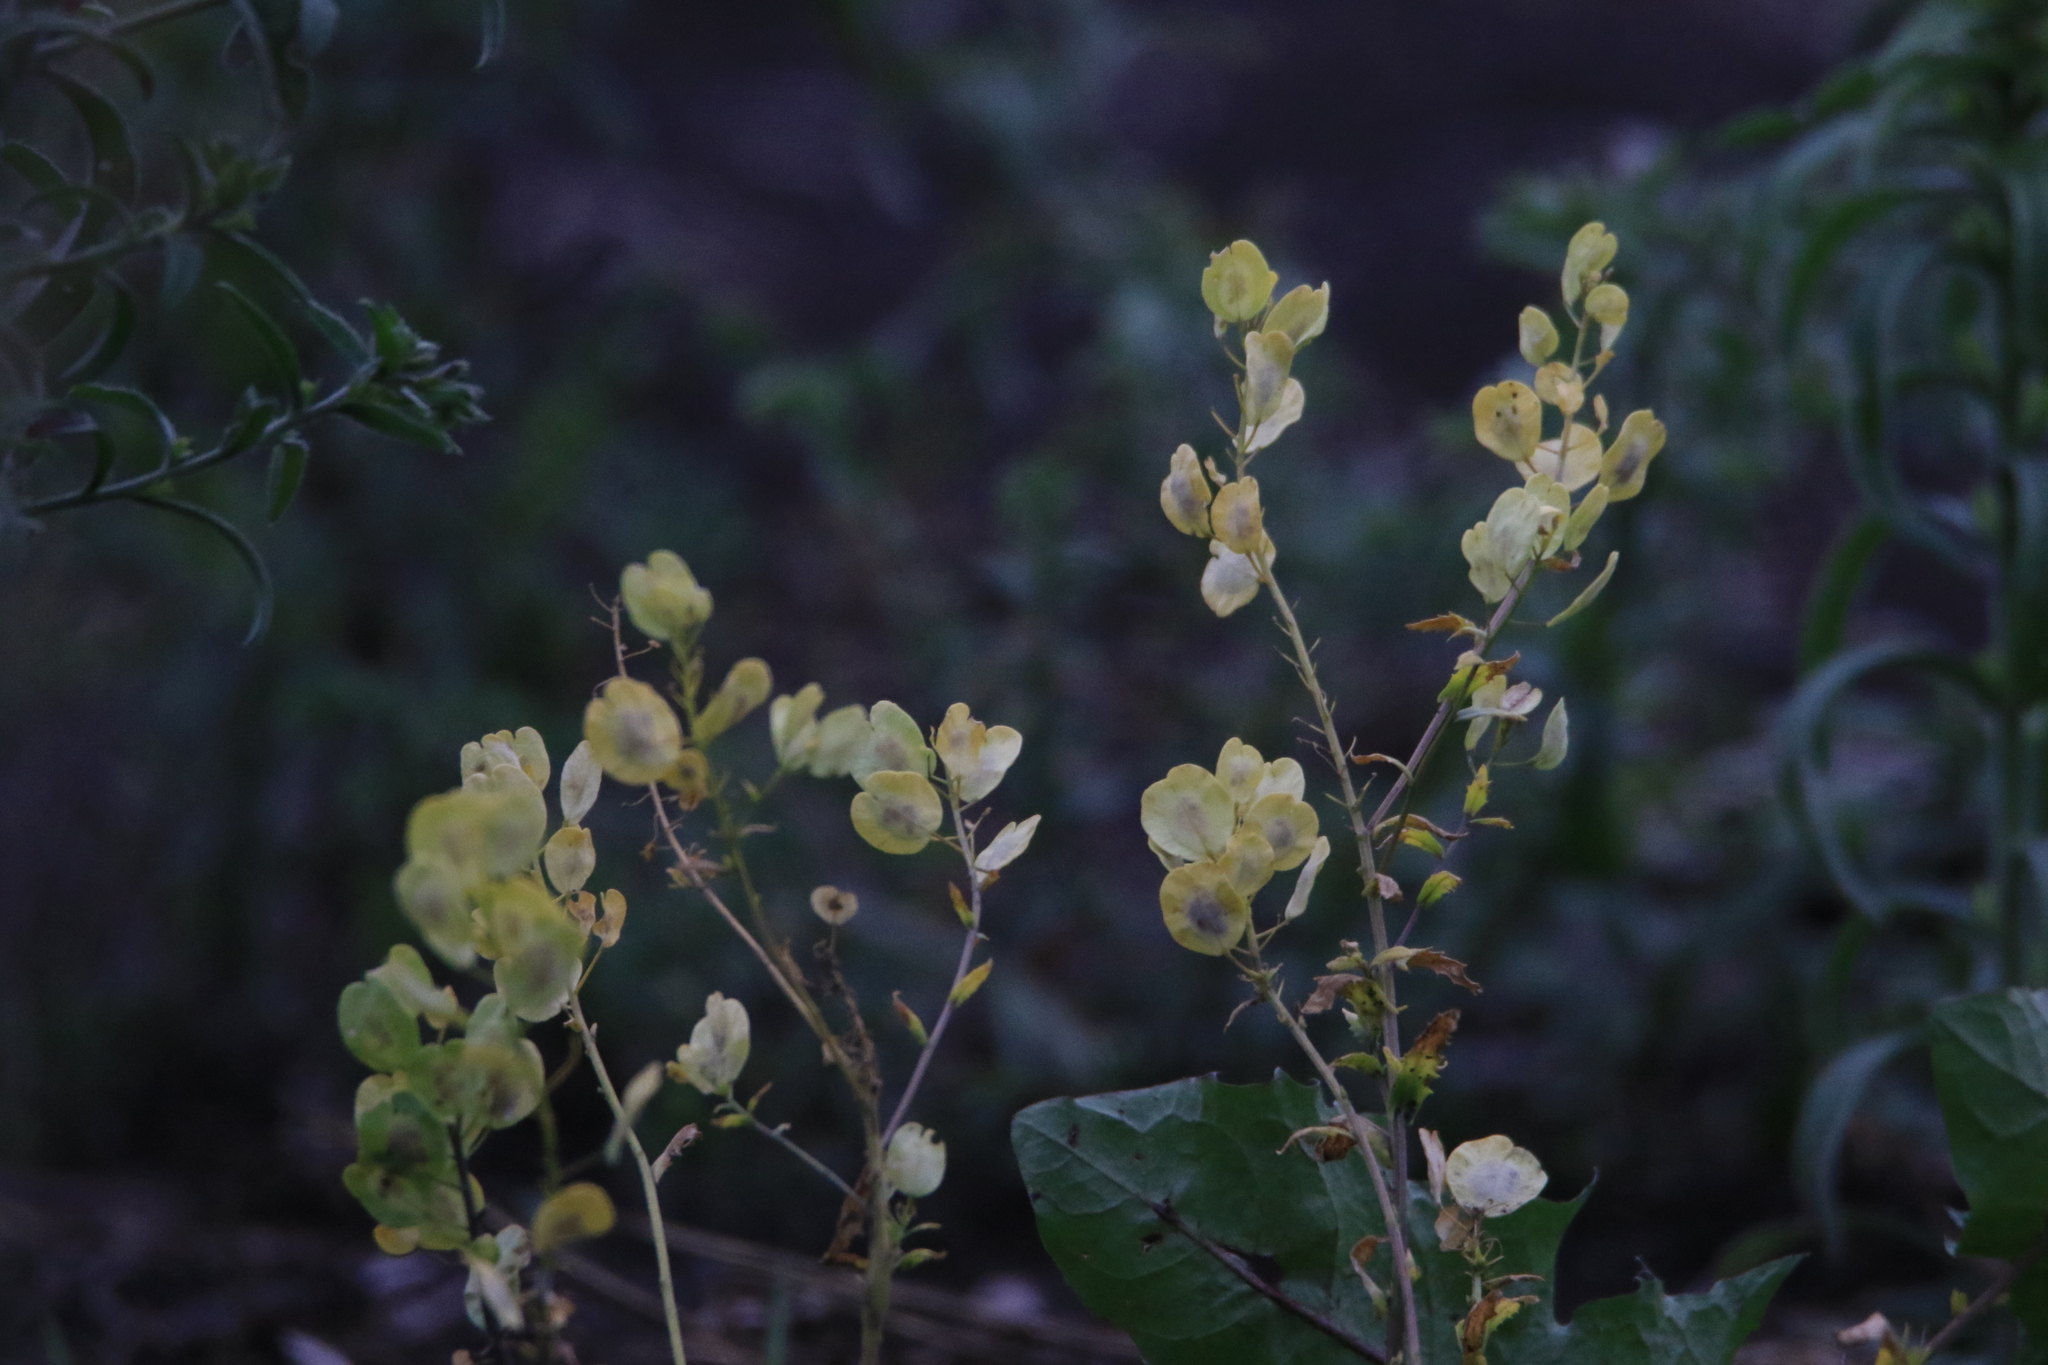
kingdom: Plantae
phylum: Tracheophyta
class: Magnoliopsida
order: Brassicales
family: Brassicaceae
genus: Thlaspi
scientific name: Thlaspi arvense
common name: Field pennycress
